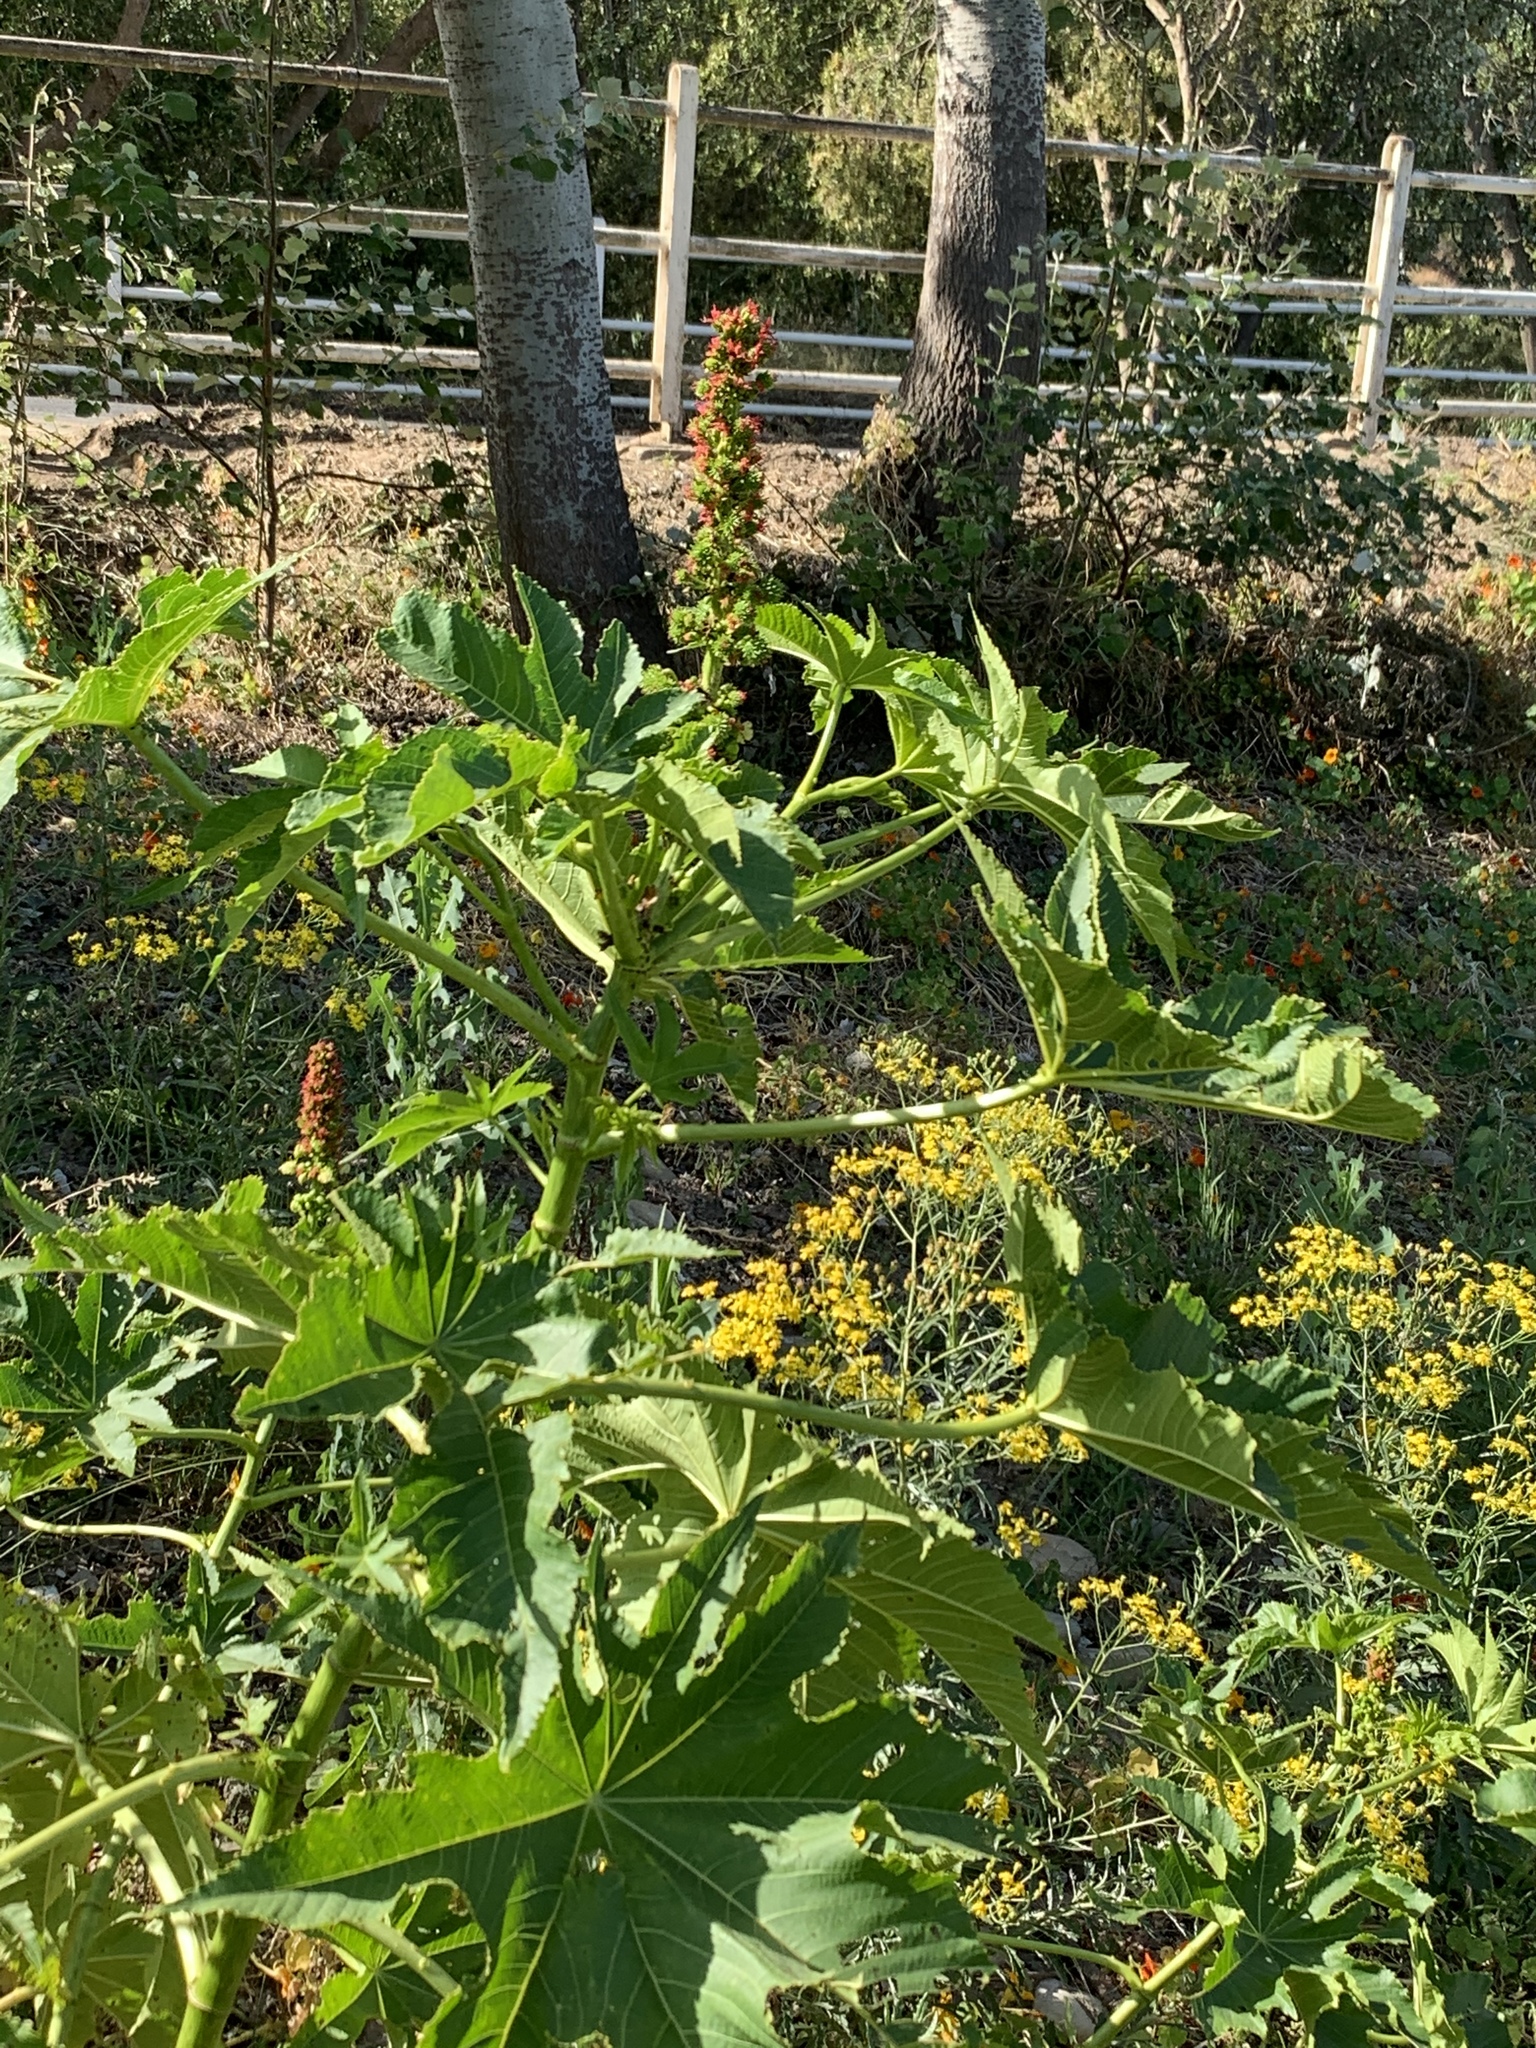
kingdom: Plantae
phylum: Tracheophyta
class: Magnoliopsida
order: Malpighiales
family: Euphorbiaceae
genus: Ricinus
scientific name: Ricinus communis
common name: Castor-oil-plant
